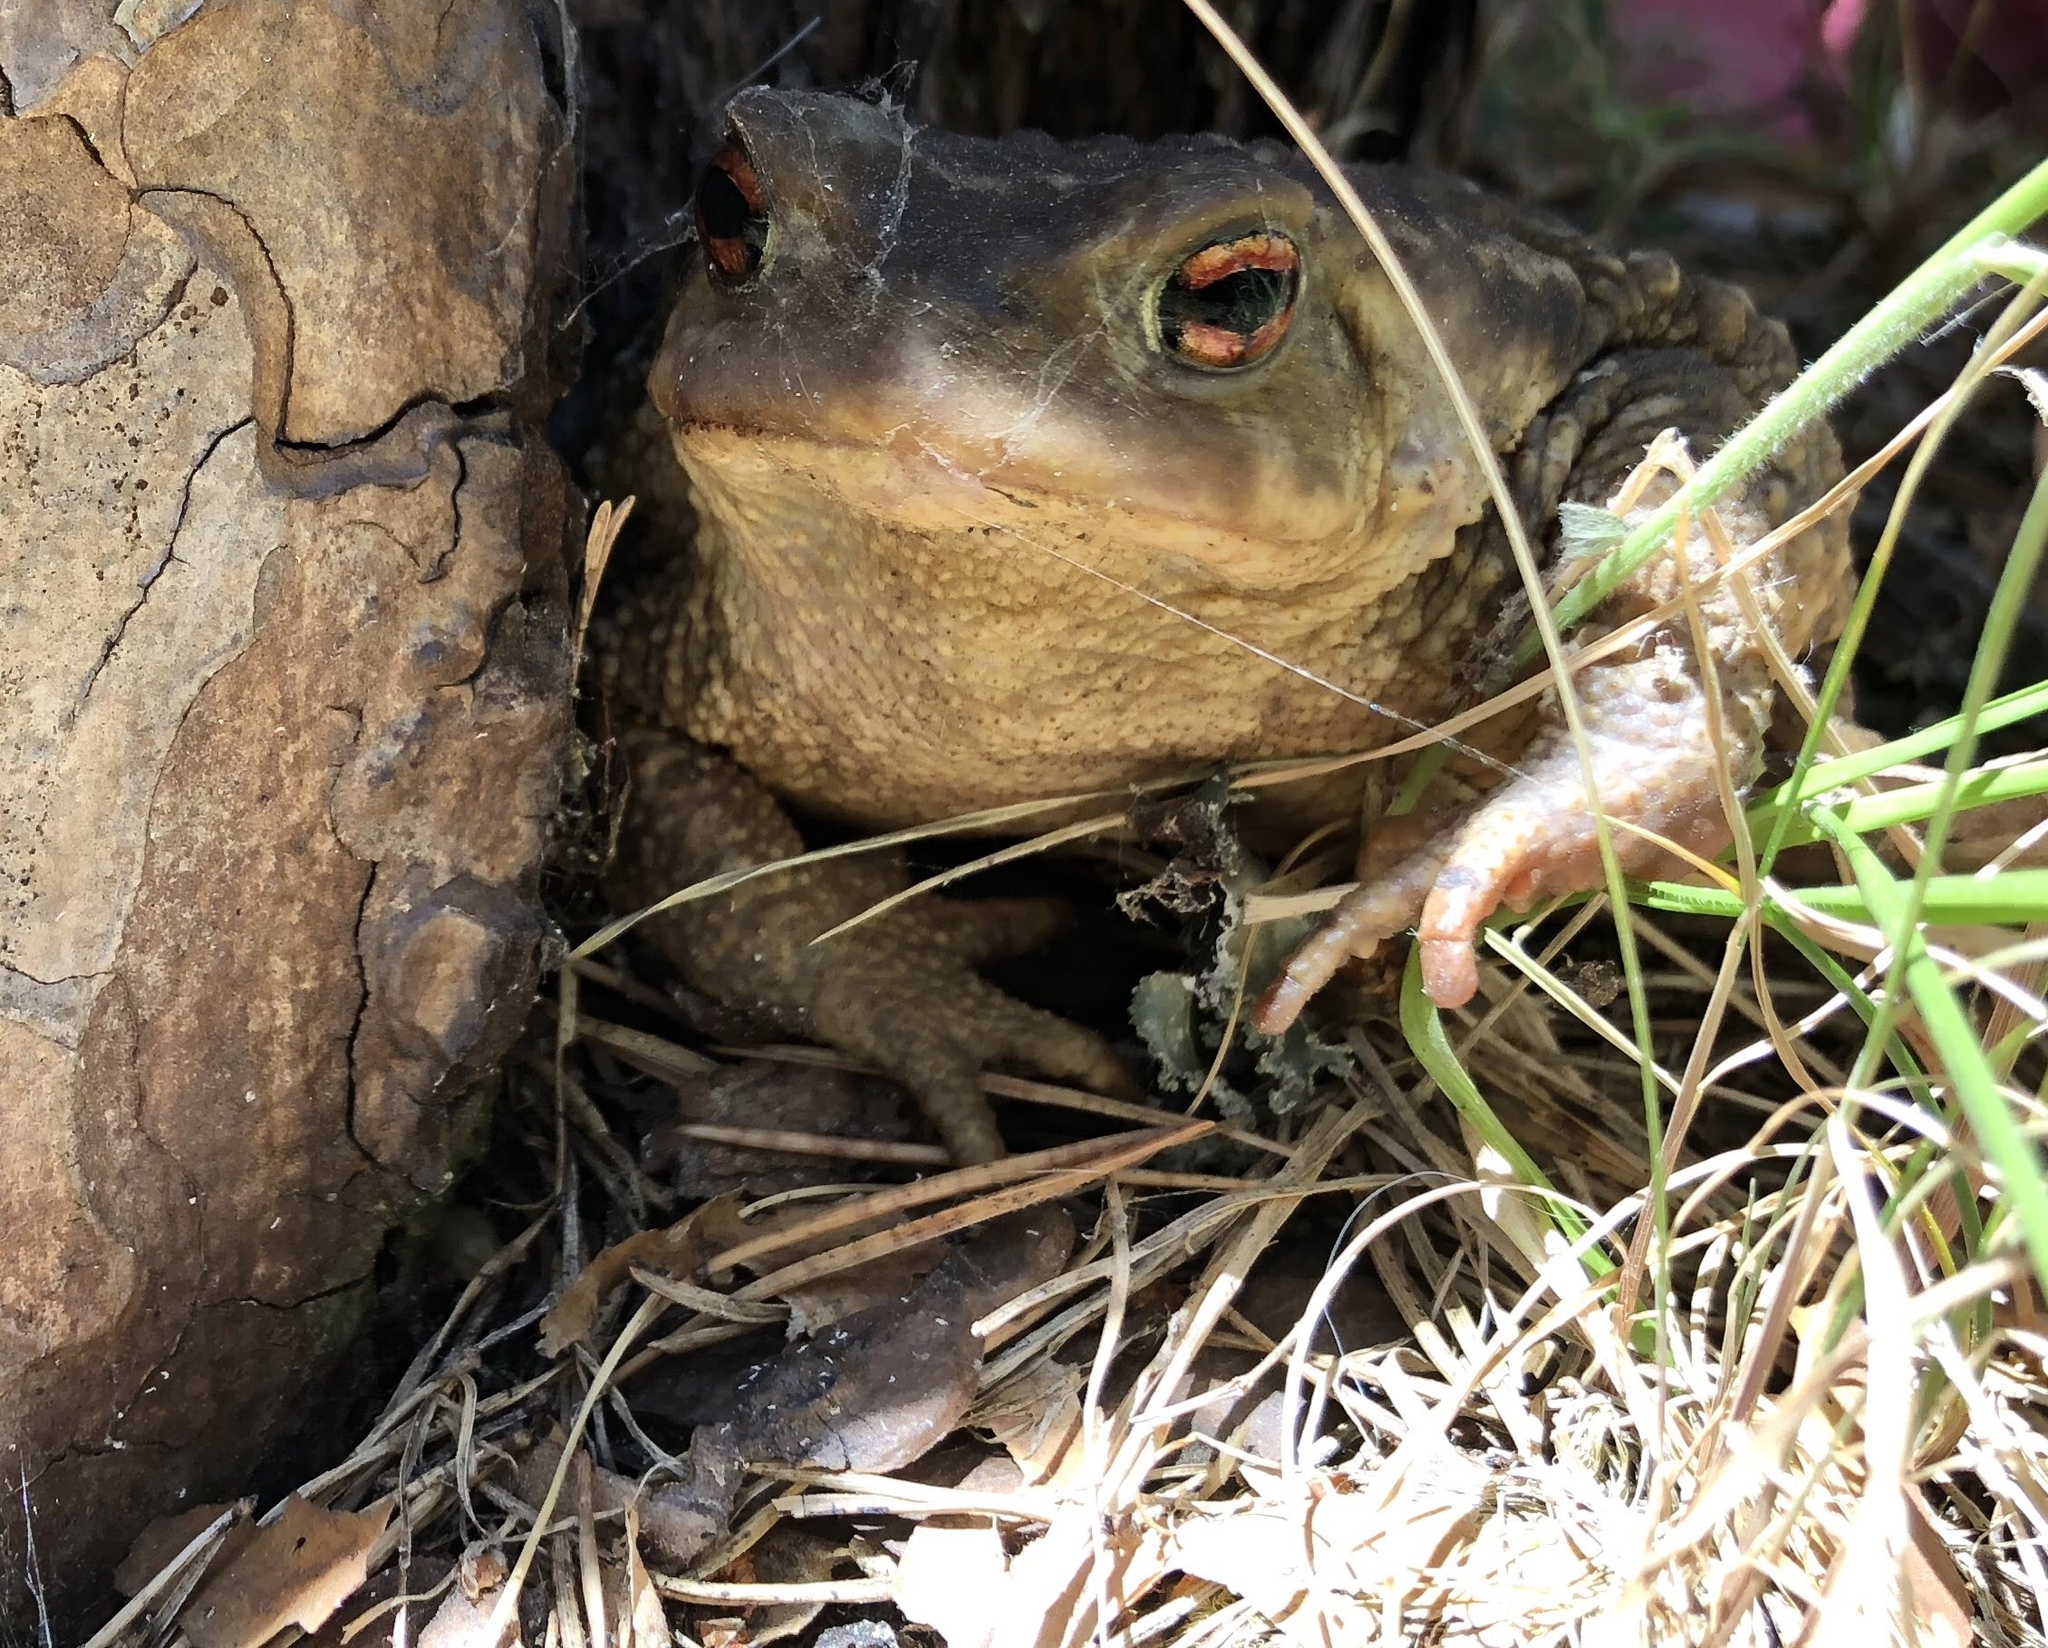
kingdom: Animalia
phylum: Chordata
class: Amphibia
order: Anura
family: Bufonidae
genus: Bufo
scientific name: Bufo spinosus
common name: Western common toad
